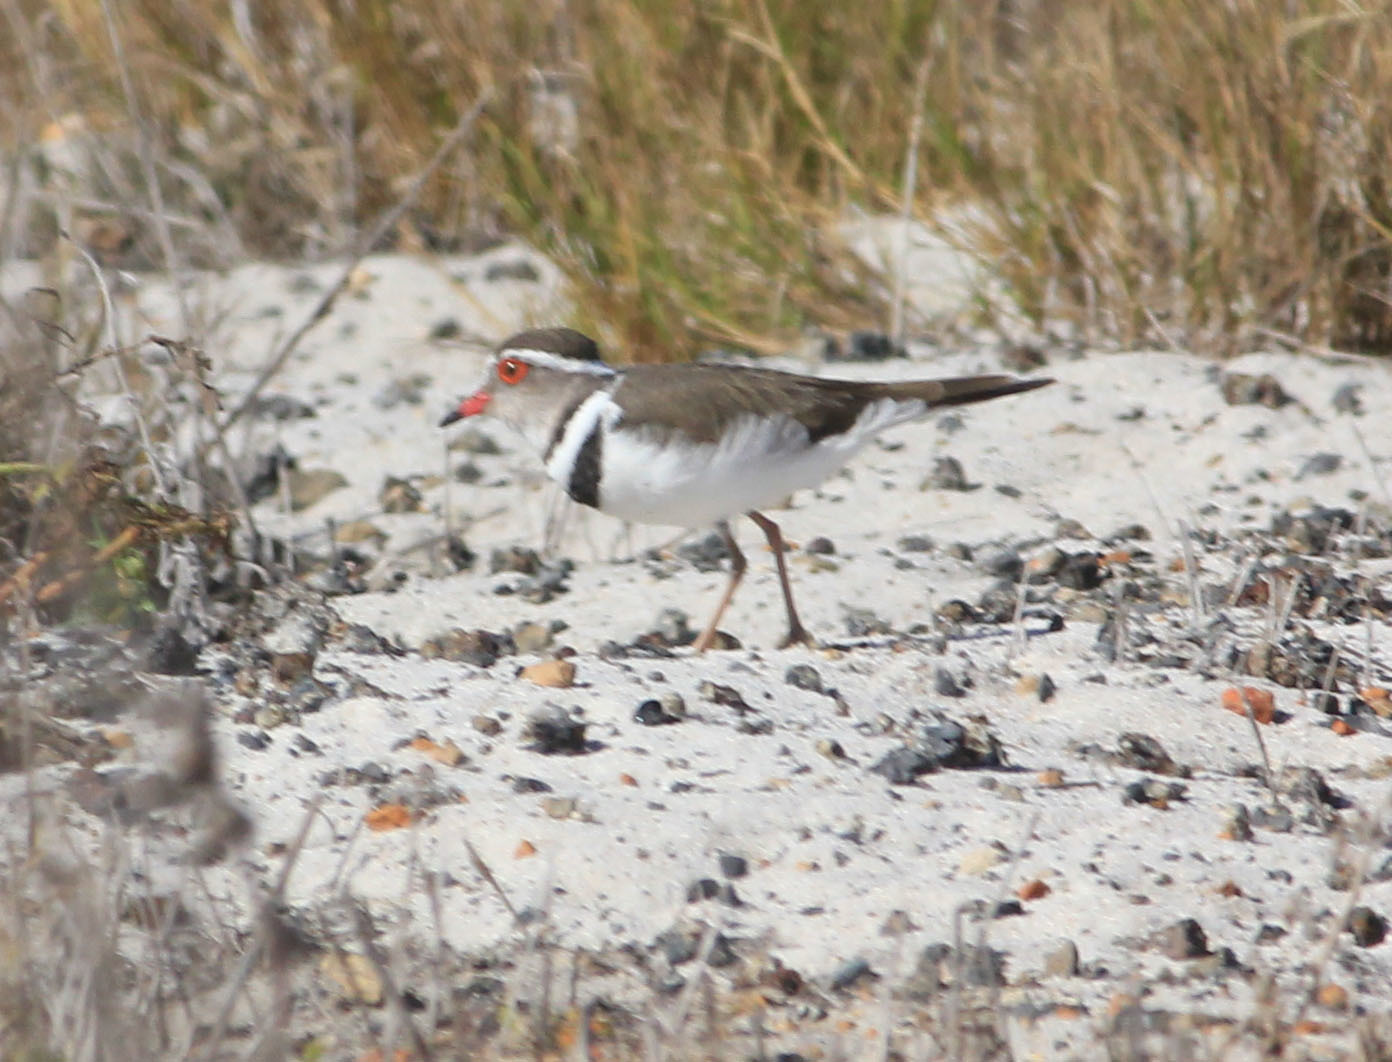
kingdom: Animalia
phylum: Chordata
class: Aves
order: Charadriiformes
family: Charadriidae
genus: Charadrius
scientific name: Charadrius tricollaris
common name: Three-banded plover
